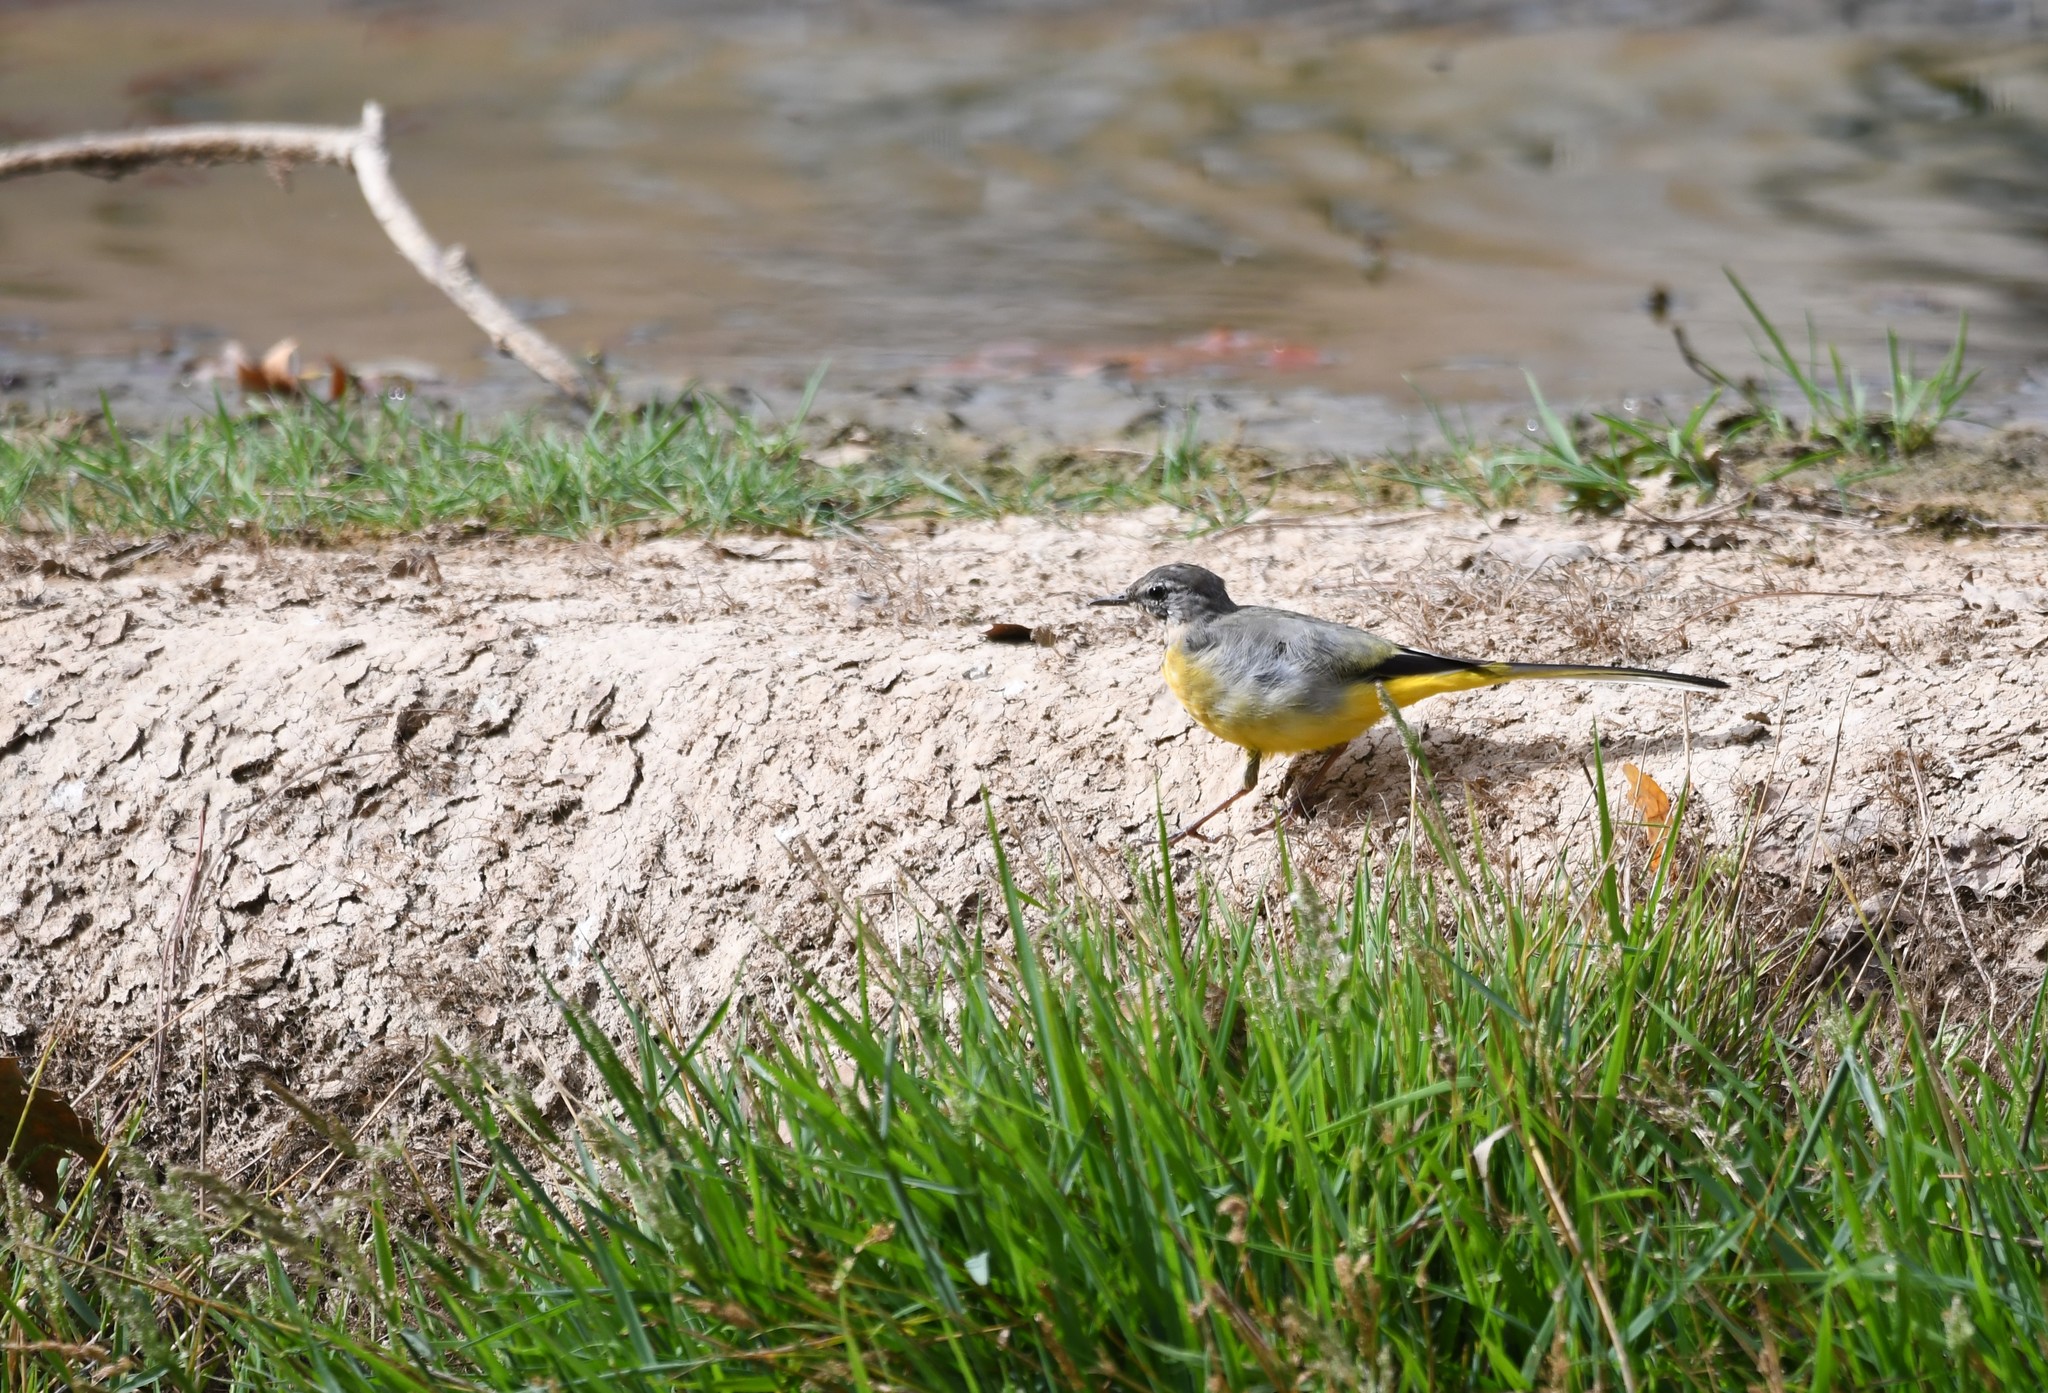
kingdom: Animalia
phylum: Chordata
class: Aves
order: Passeriformes
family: Motacillidae
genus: Motacilla
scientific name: Motacilla cinerea
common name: Grey wagtail
